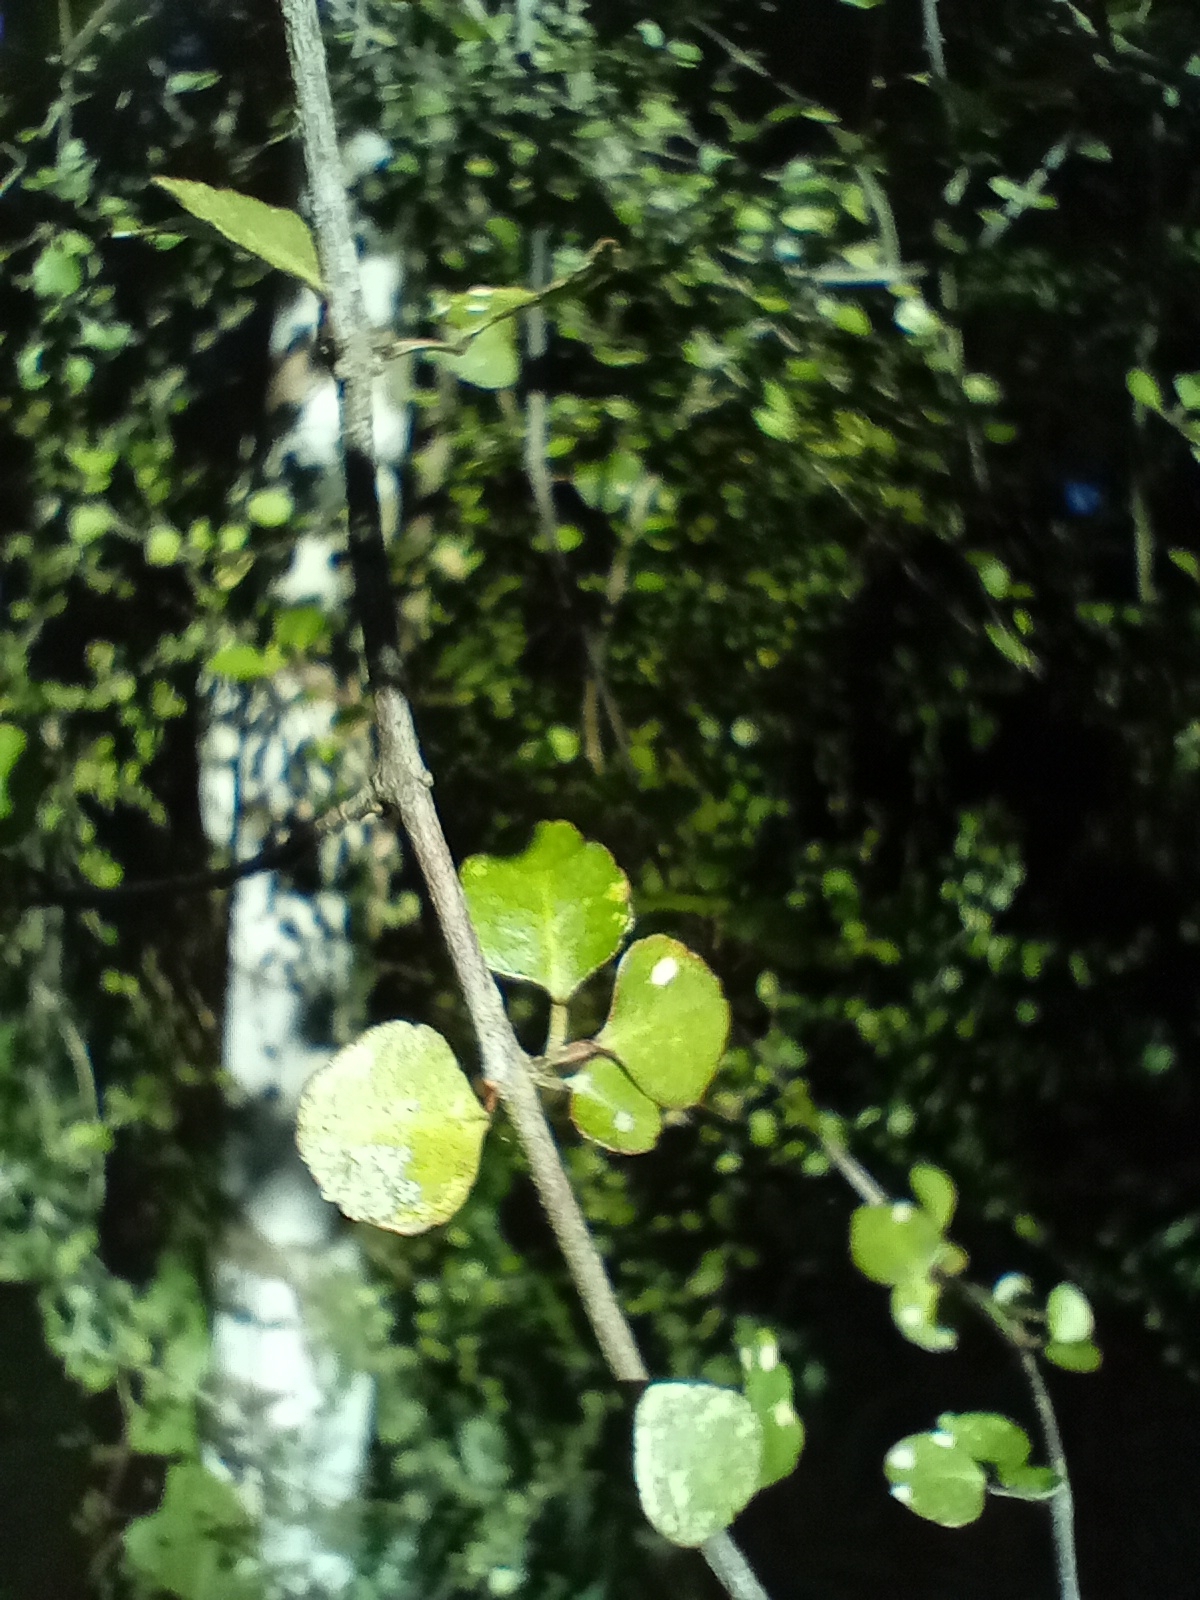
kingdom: Plantae
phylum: Tracheophyta
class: Magnoliopsida
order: Sapindales
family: Rutaceae
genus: Melicope
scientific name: Melicope simplex
